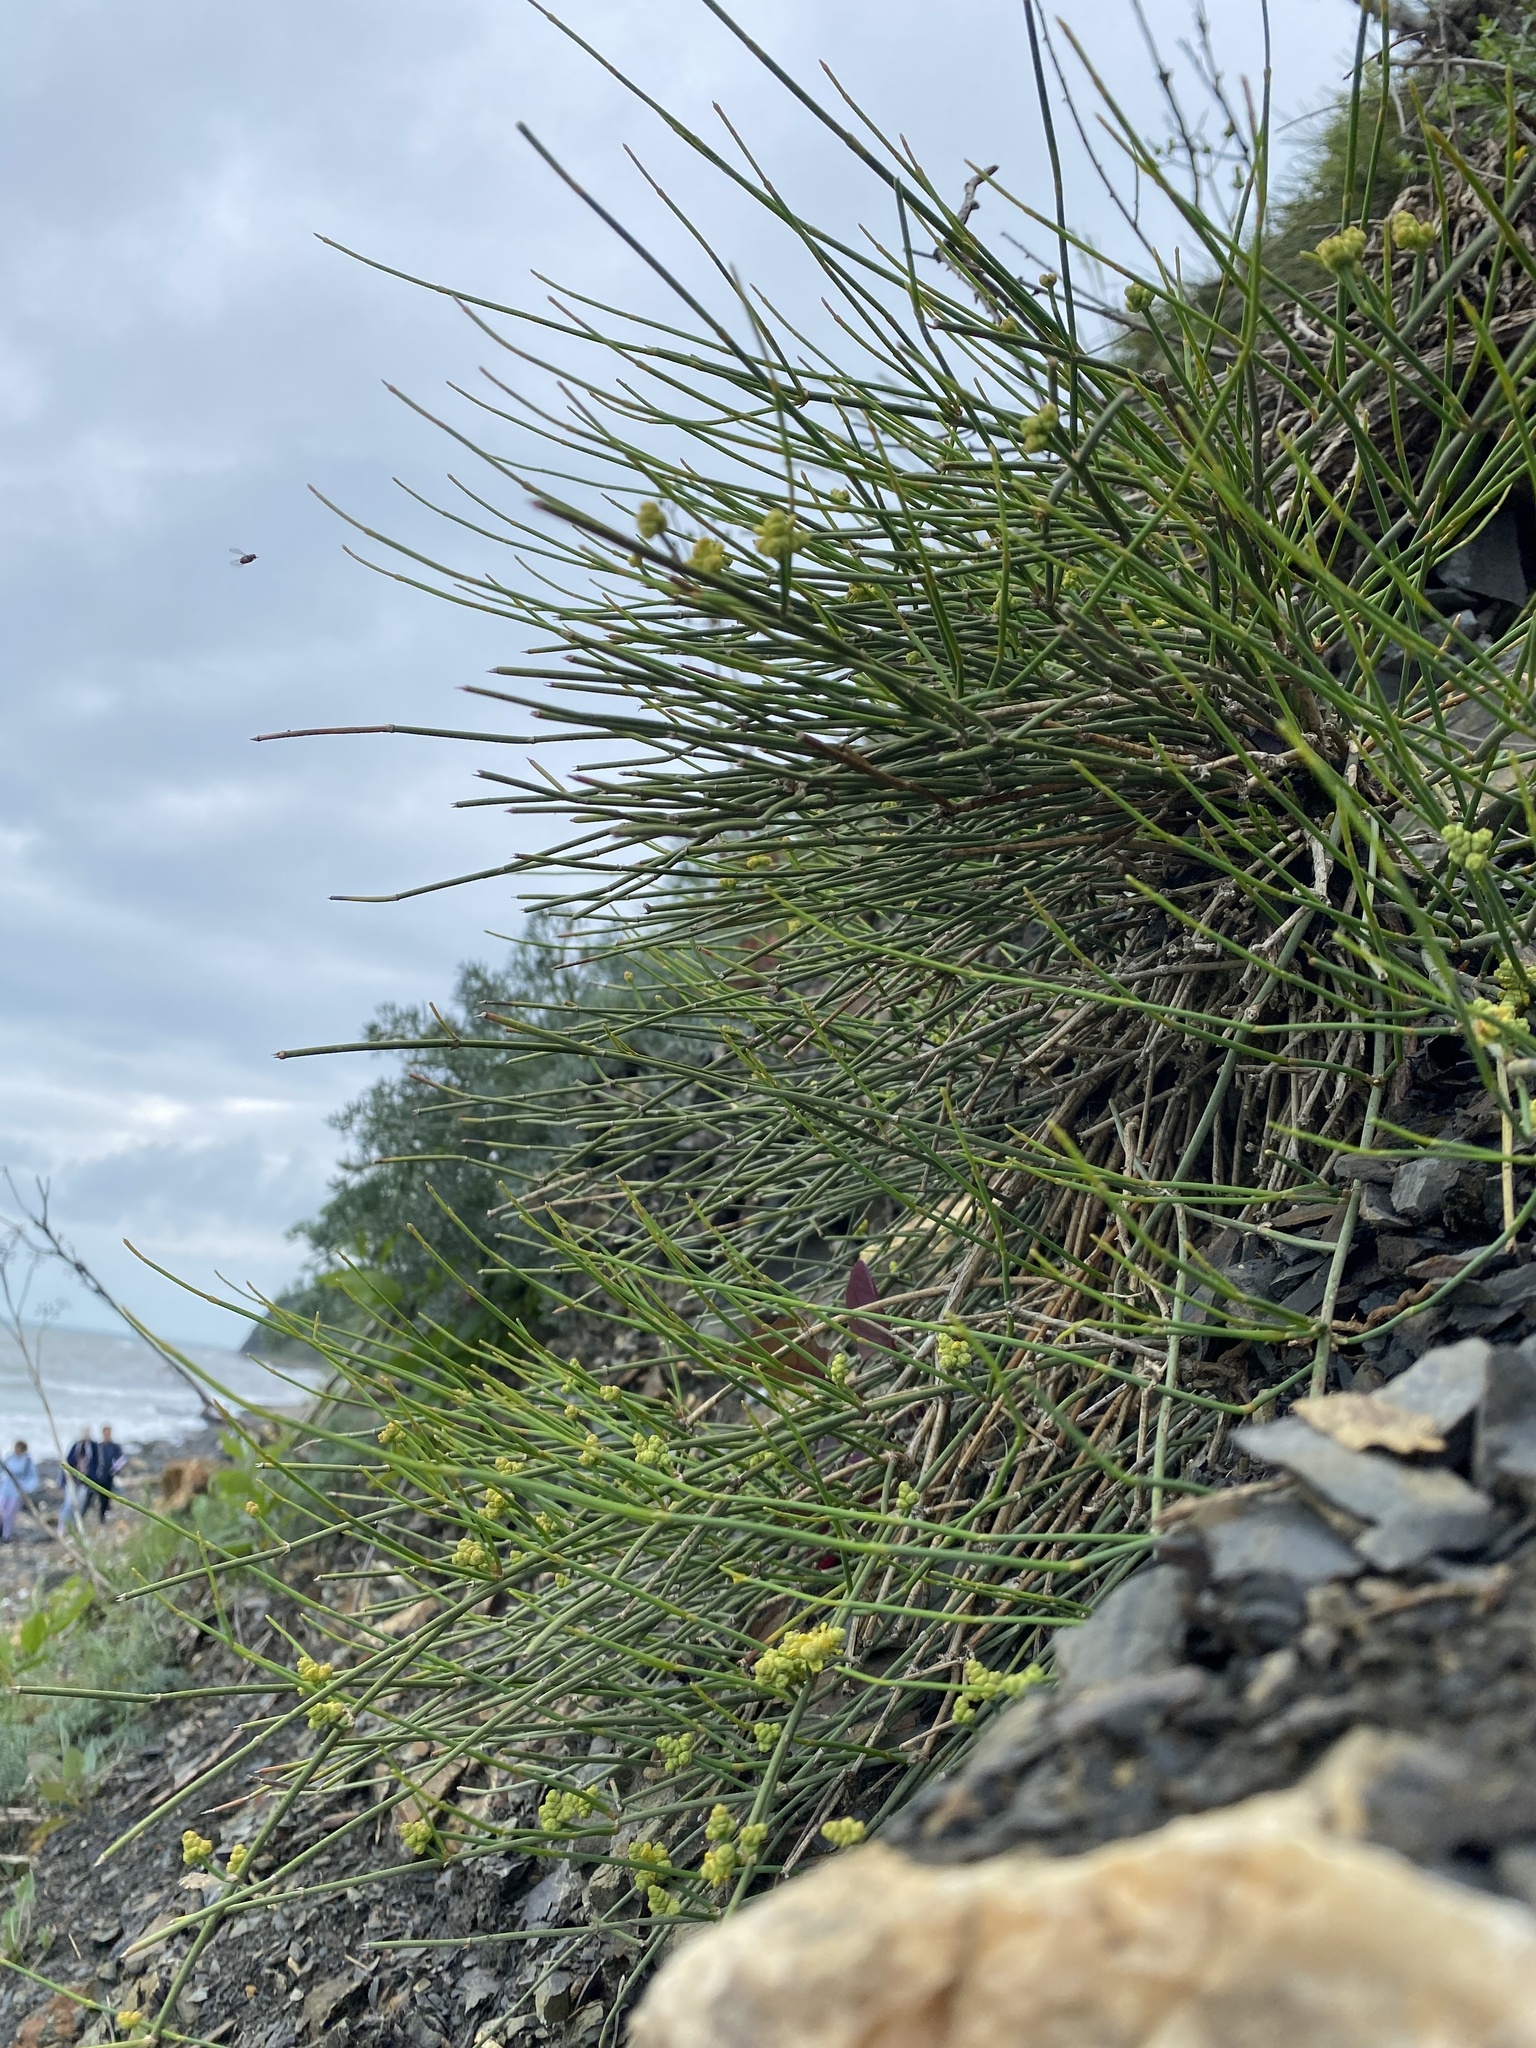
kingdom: Plantae
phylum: Tracheophyta
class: Gnetopsida
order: Ephedrales
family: Ephedraceae
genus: Ephedra
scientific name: Ephedra distachya
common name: Sea grape
